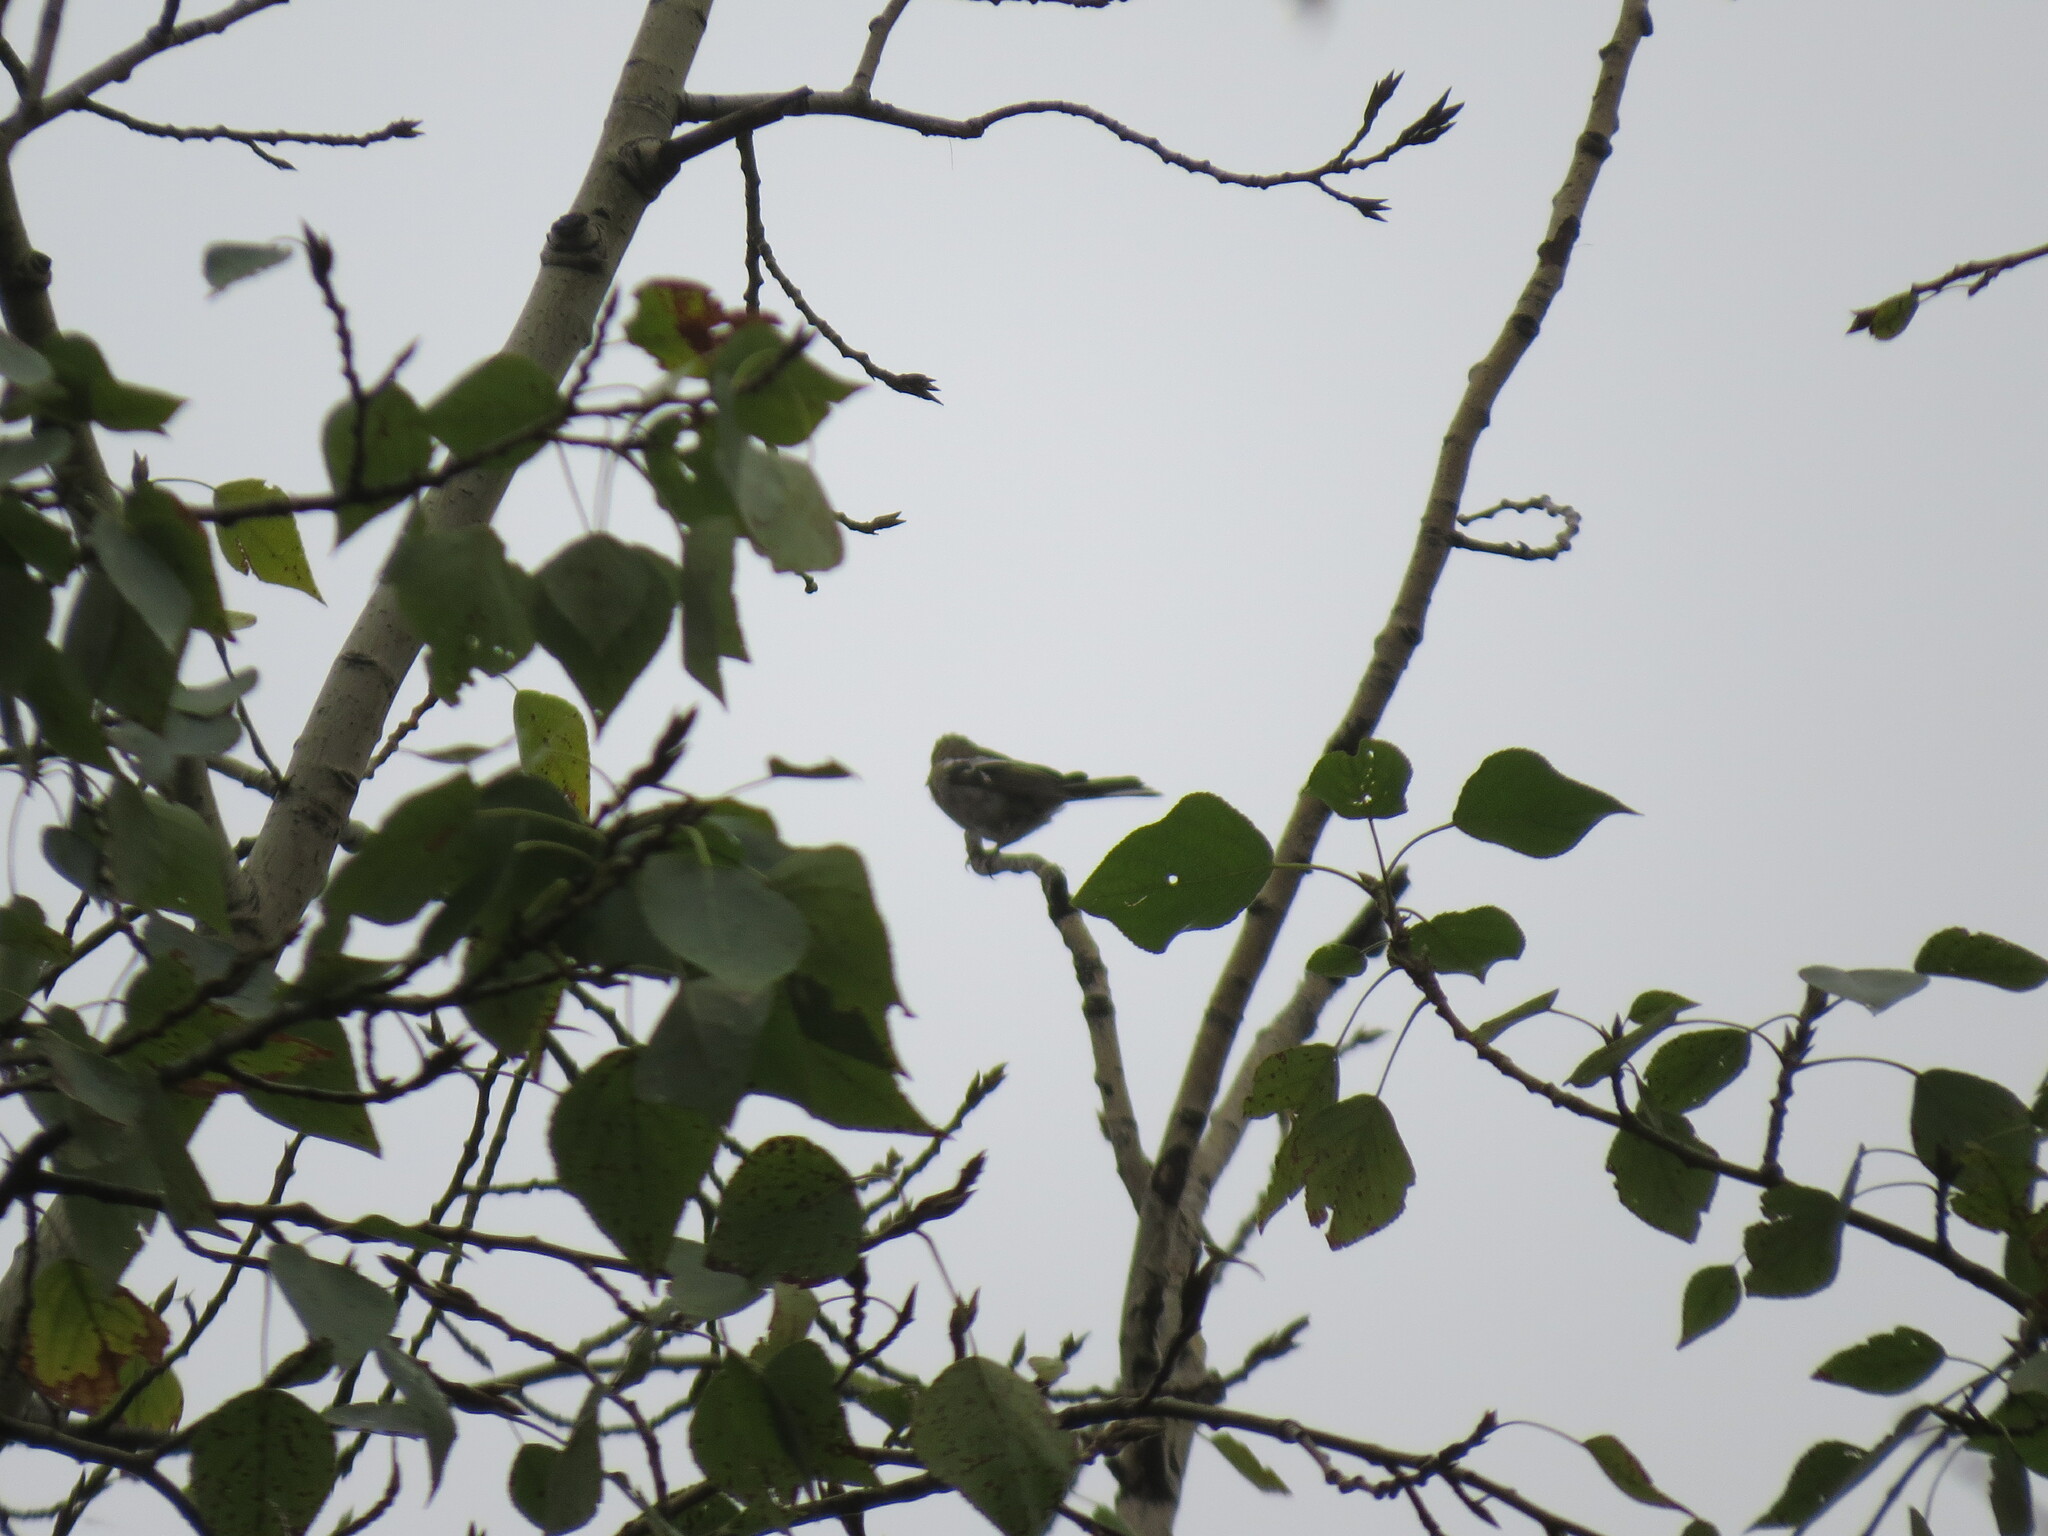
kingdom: Animalia
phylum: Chordata
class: Aves
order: Passeriformes
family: Fringillidae
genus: Fringilla
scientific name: Fringilla coelebs
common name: Common chaffinch
